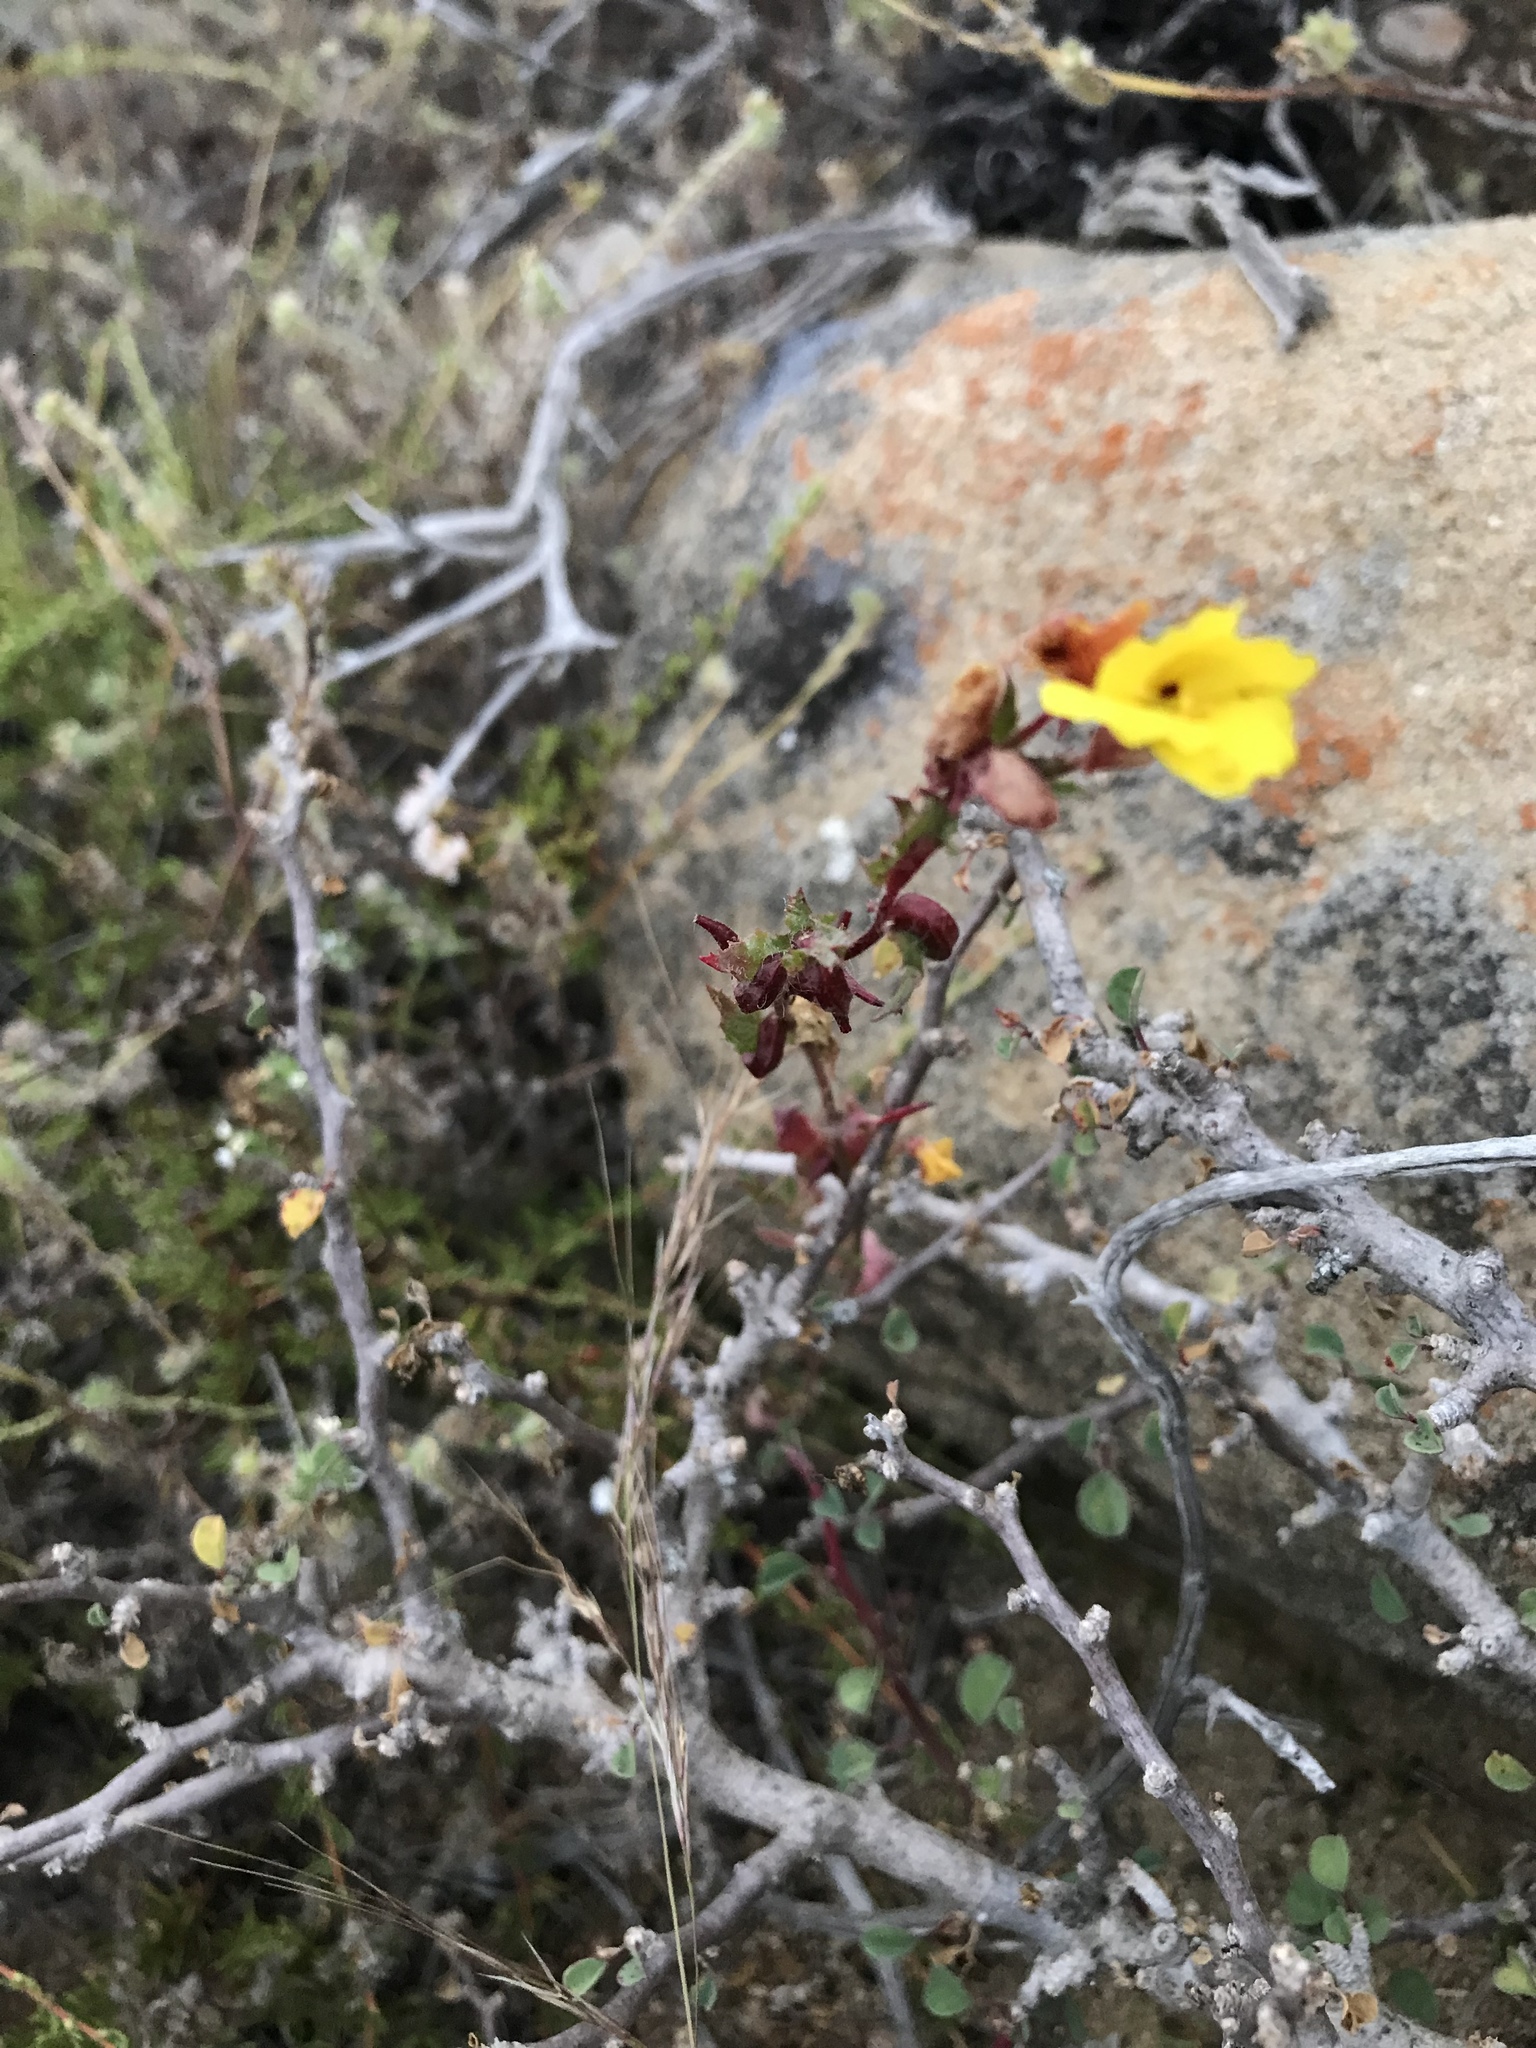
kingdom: Plantae
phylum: Tracheophyta
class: Magnoliopsida
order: Myrtales
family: Onagraceae
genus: Camissoniopsis
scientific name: Camissoniopsis lewisii
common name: Lewis' evening primrose
